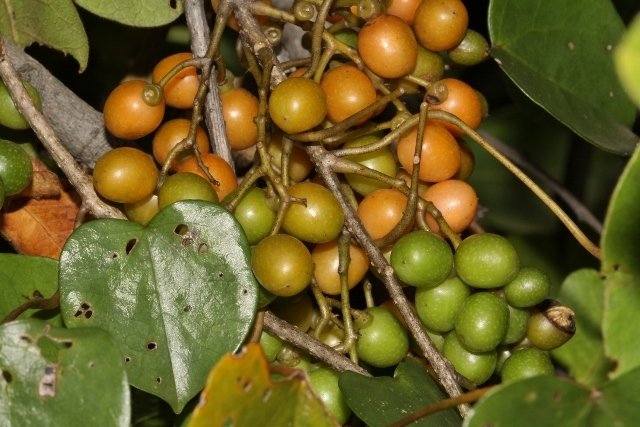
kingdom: Plantae
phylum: Tracheophyta
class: Magnoliopsida
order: Ranunculales
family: Menispermaceae
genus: Tinospora
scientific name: Tinospora caffra
